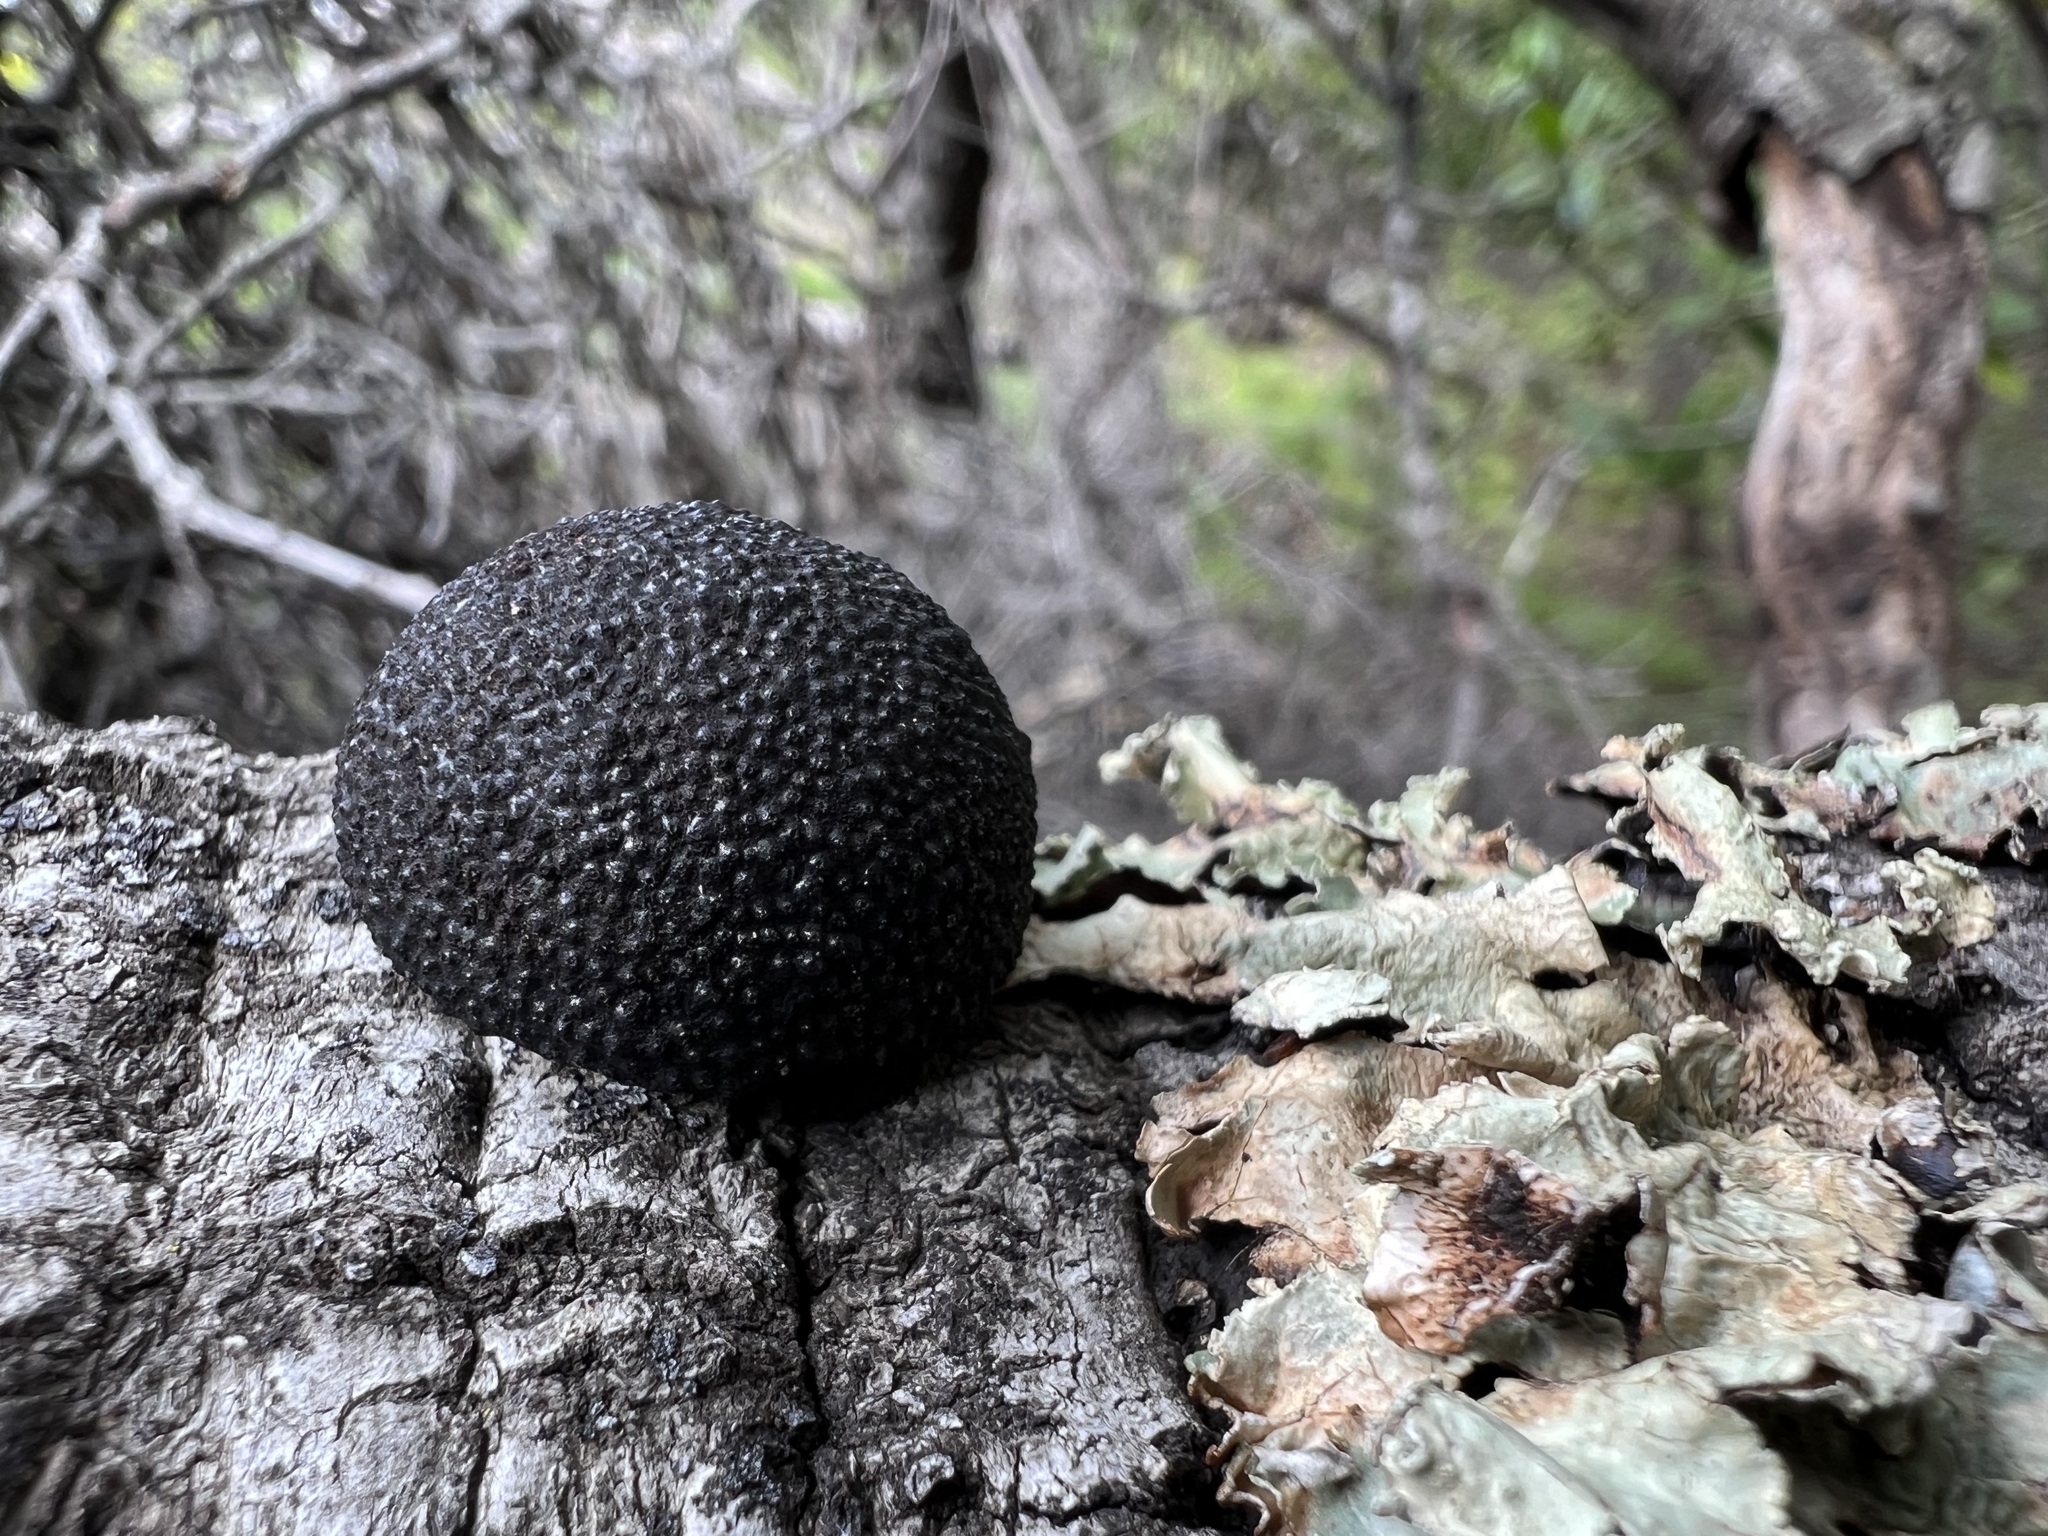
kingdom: Fungi
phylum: Ascomycota
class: Sordariomycetes
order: Xylariales
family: Hypoxylaceae
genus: Annulohypoxylon
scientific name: Annulohypoxylon thouarsianum
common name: Cramp balls
